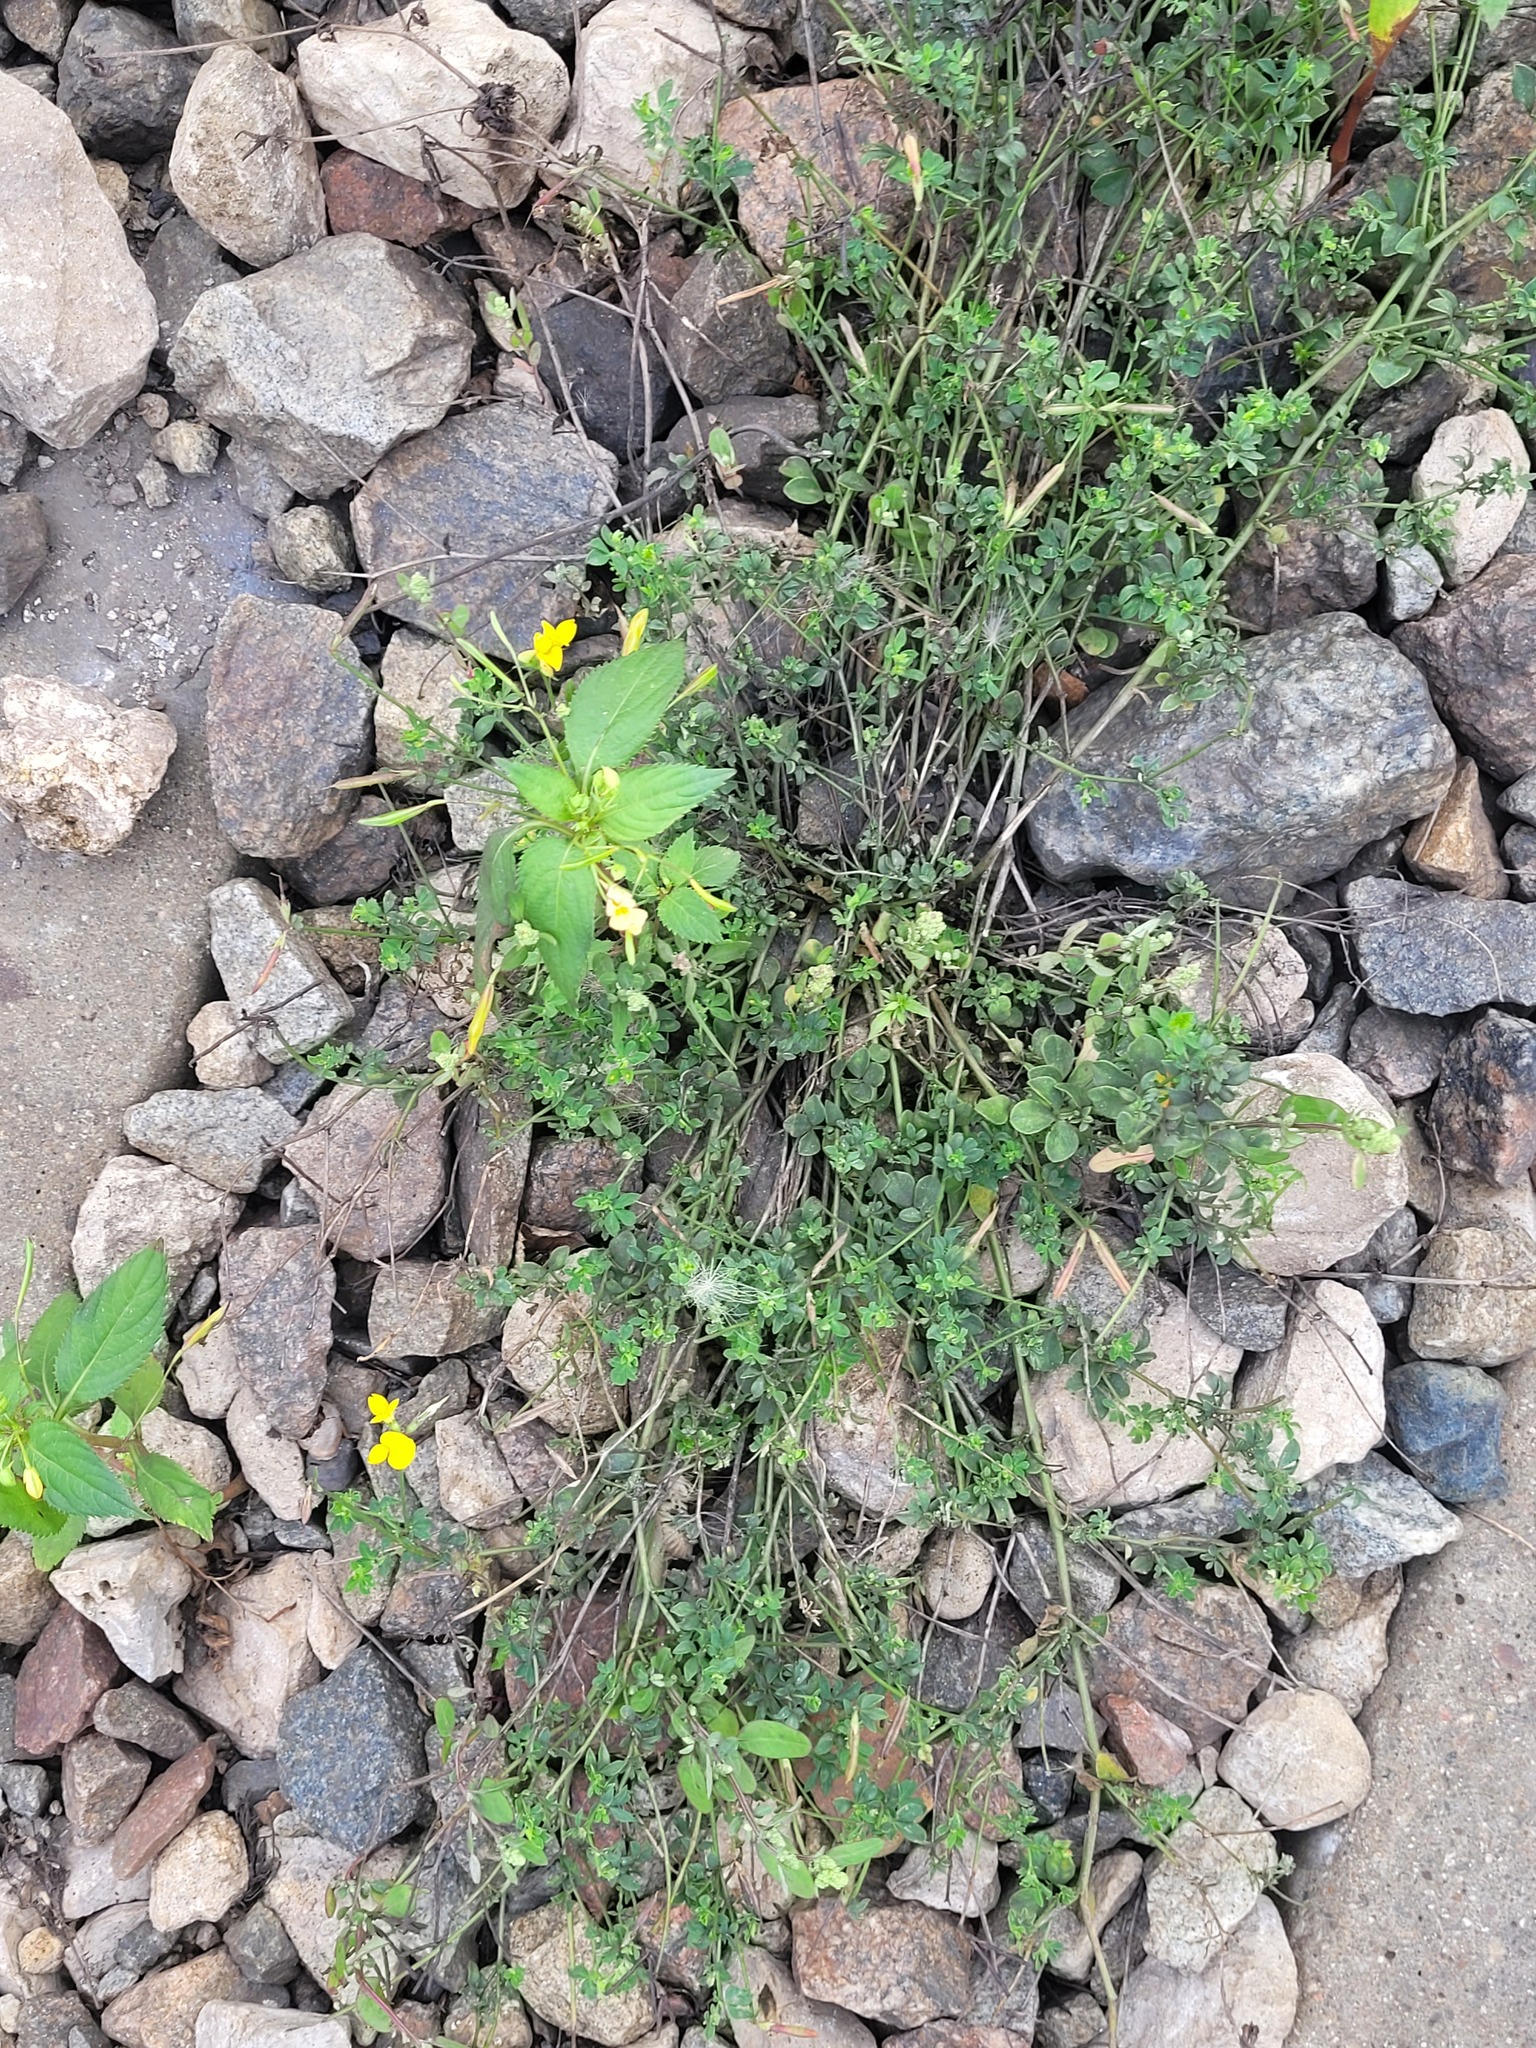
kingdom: Plantae
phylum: Tracheophyta
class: Magnoliopsida
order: Fabales
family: Fabaceae
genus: Lotus
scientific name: Lotus corniculatus
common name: Common bird's-foot-trefoil
